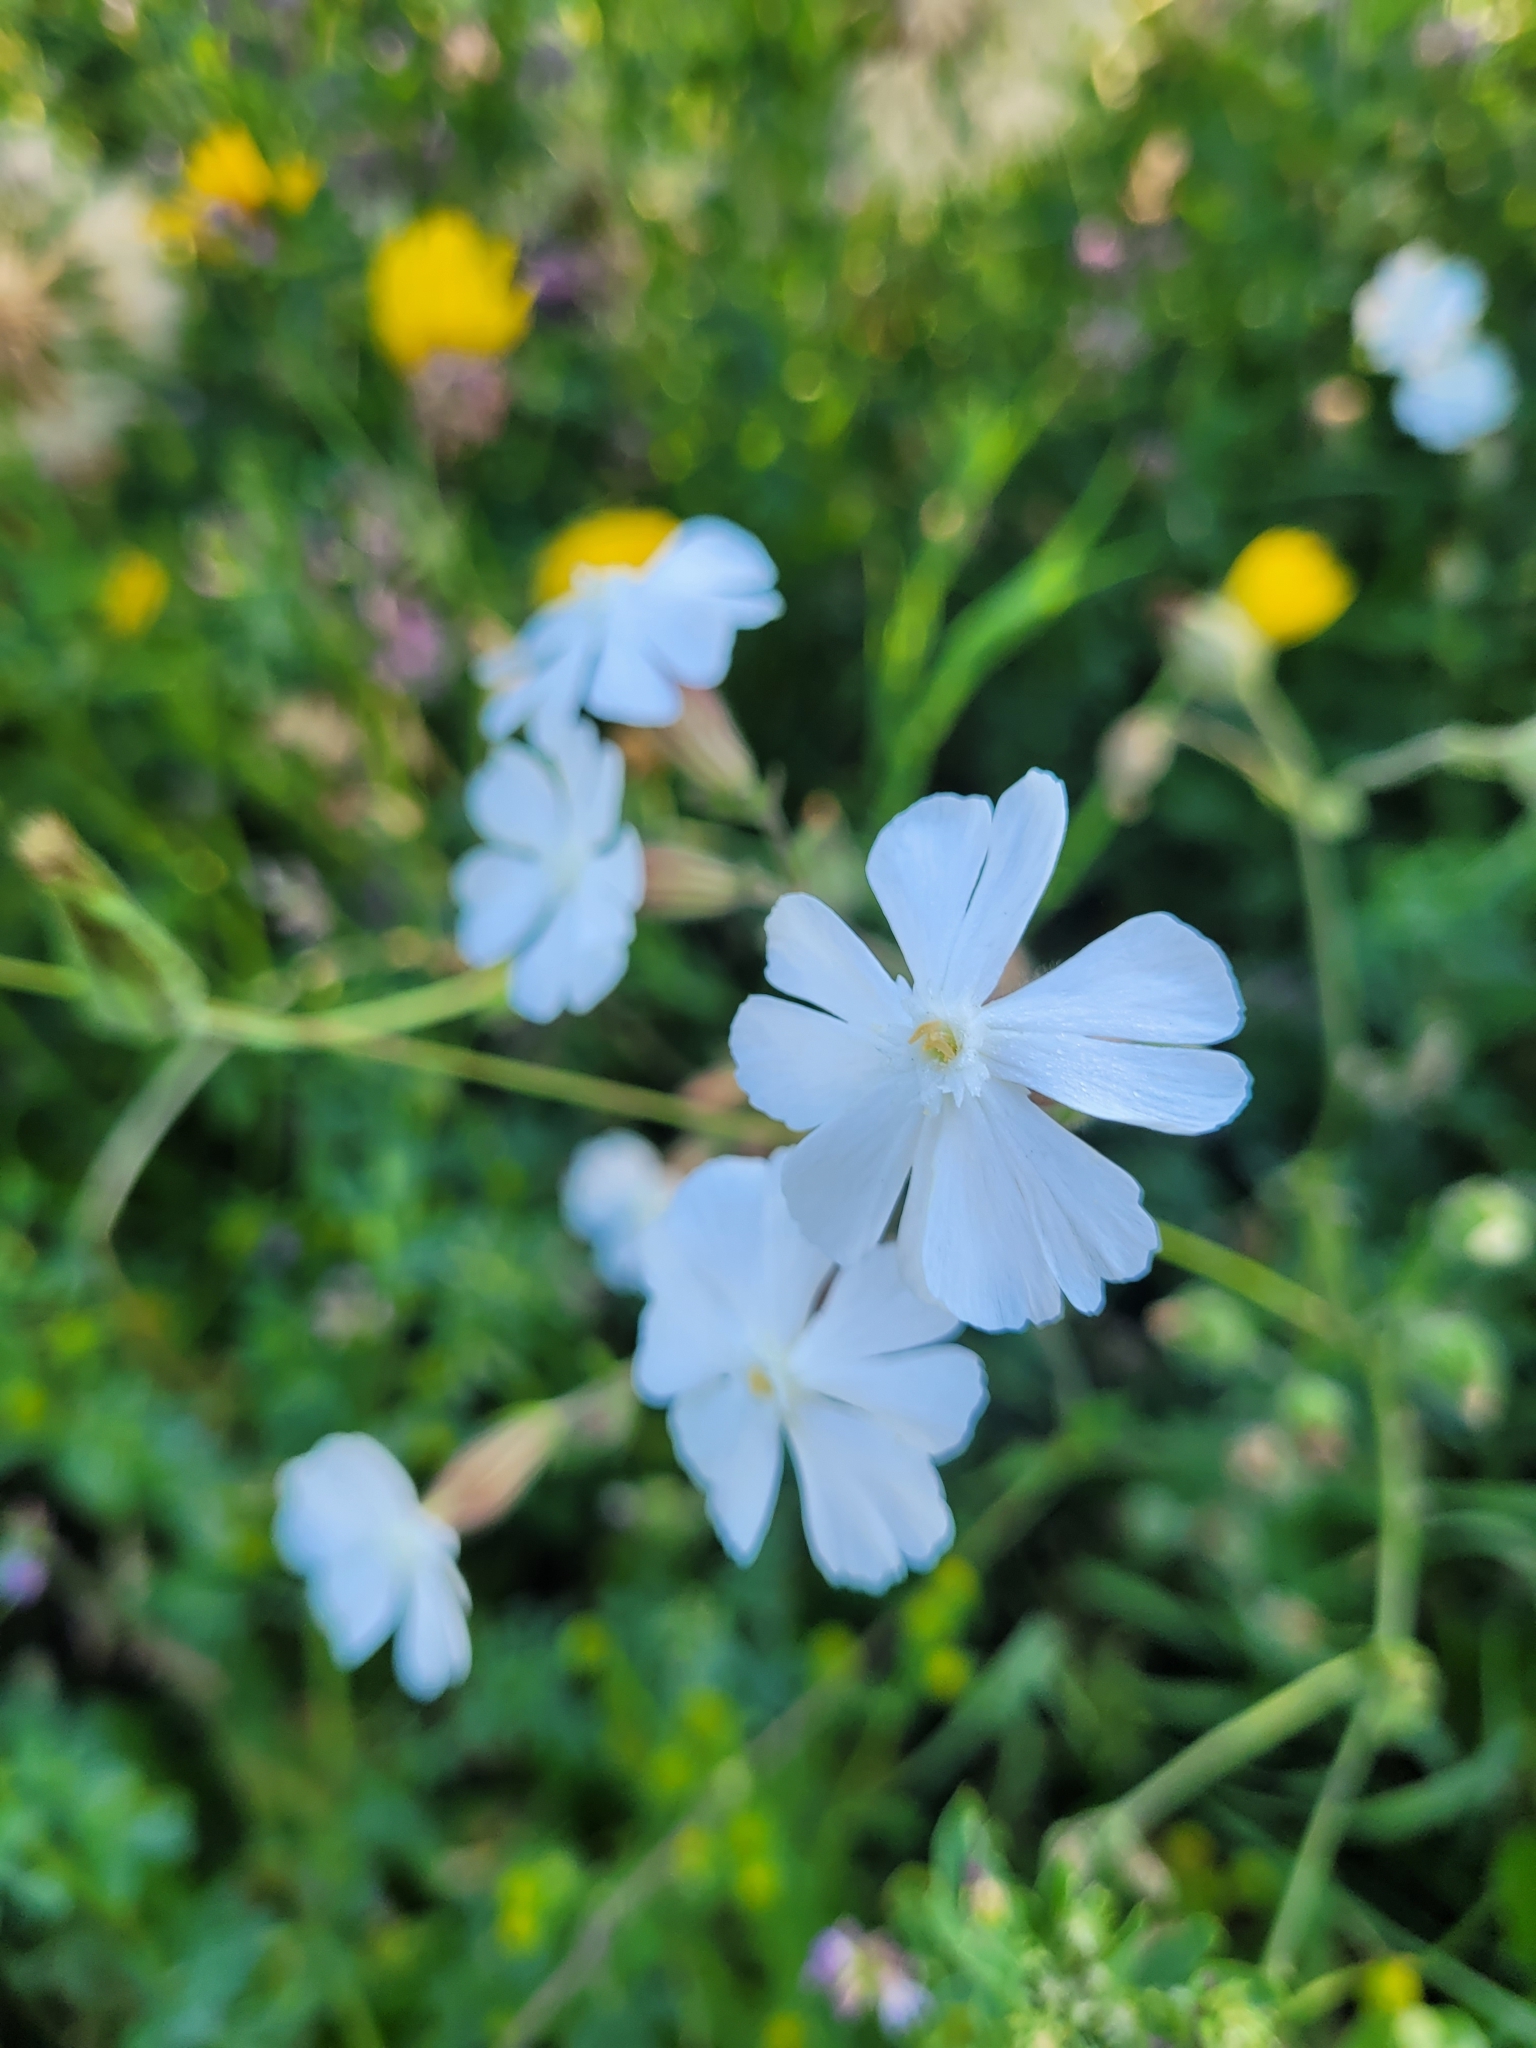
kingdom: Plantae
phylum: Tracheophyta
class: Magnoliopsida
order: Caryophyllales
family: Caryophyllaceae
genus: Silene
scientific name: Silene latifolia
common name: White campion
